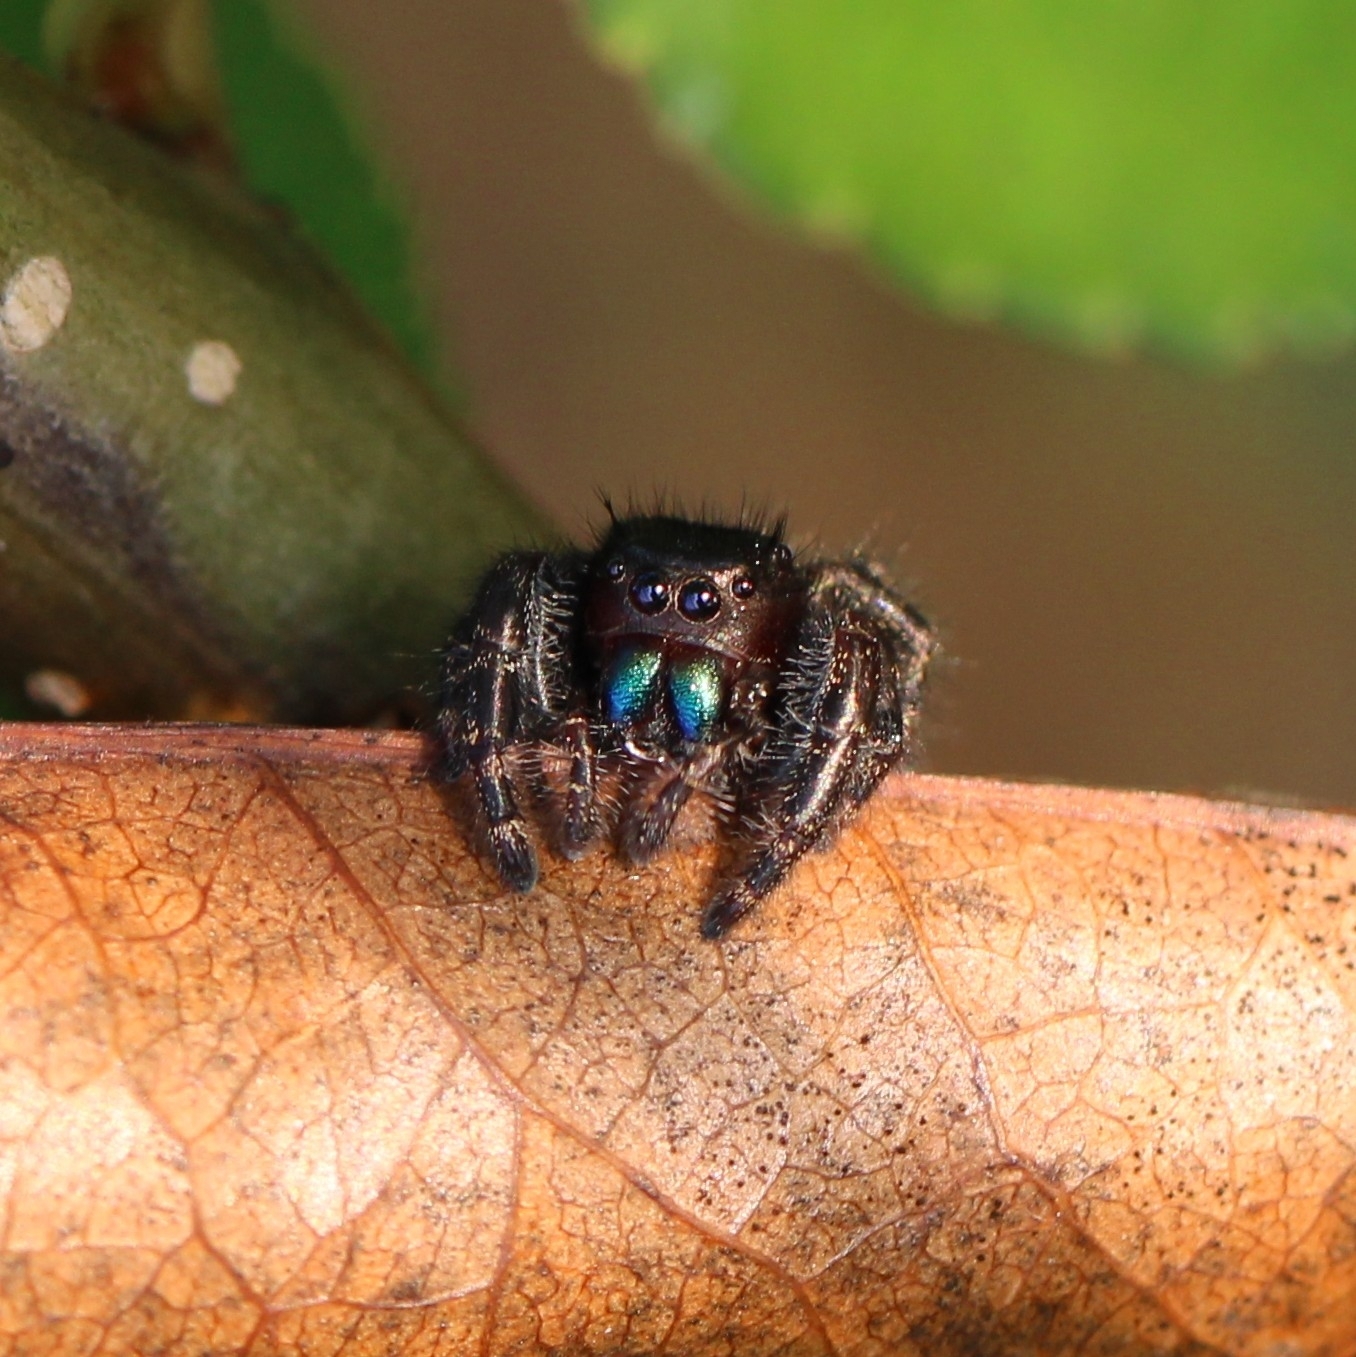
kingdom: Animalia
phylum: Arthropoda
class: Arachnida
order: Araneae
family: Salticidae
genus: Phidippus
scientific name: Phidippus audax
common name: Bold jumper
